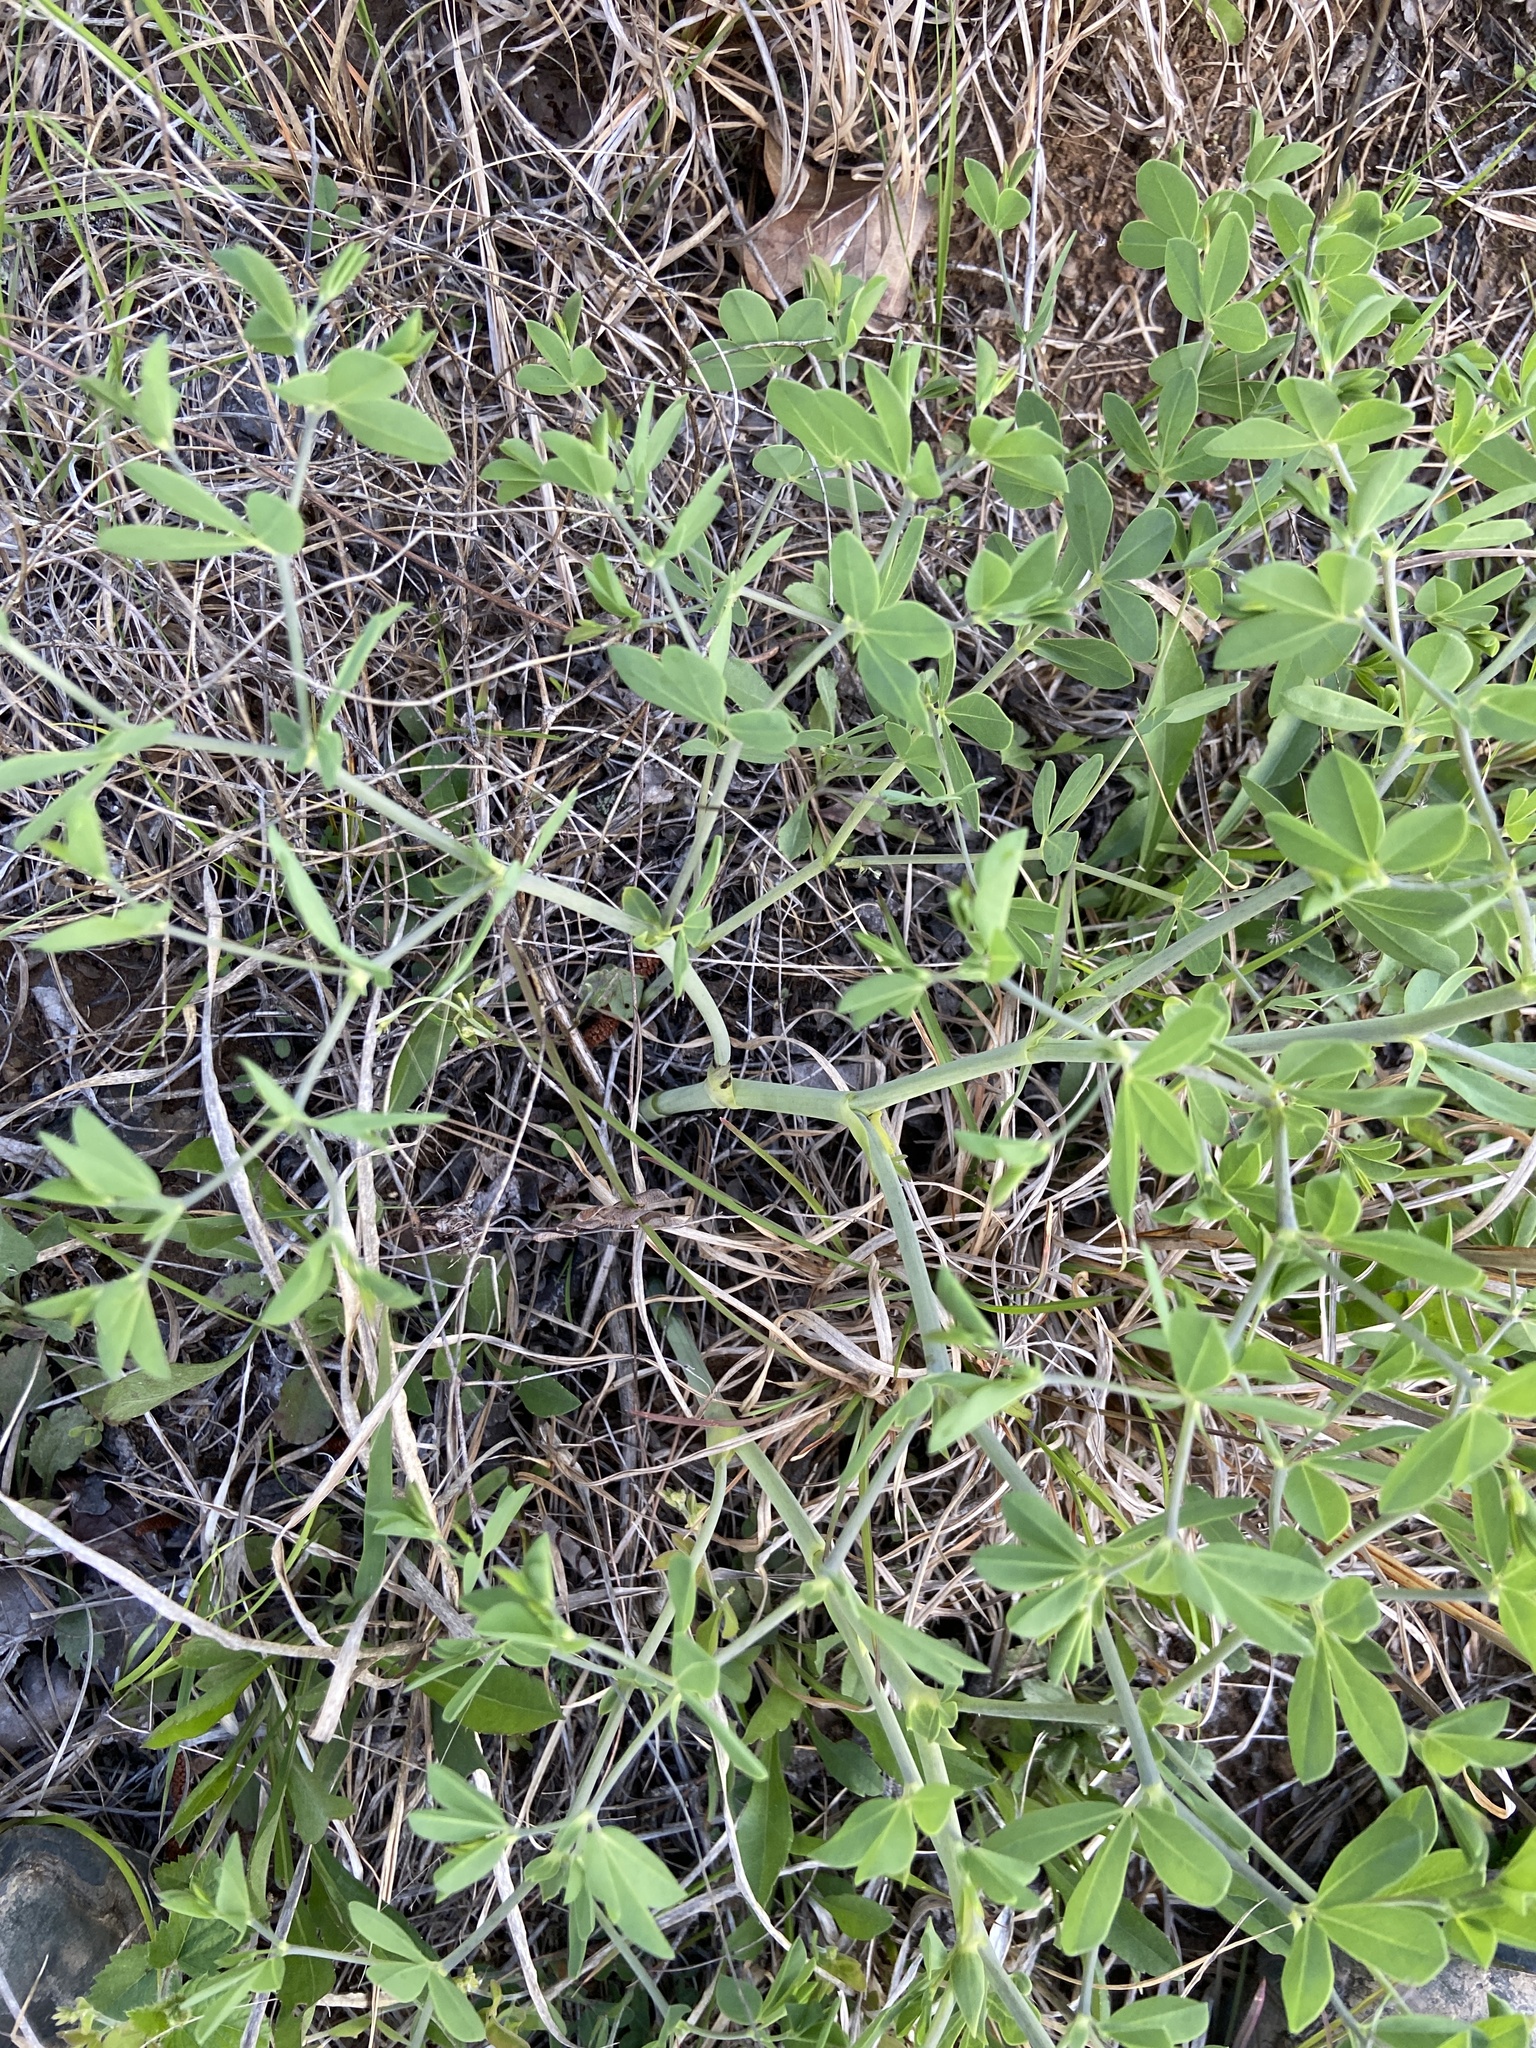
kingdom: Plantae
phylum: Tracheophyta
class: Magnoliopsida
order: Fabales
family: Fabaceae
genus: Baptisia
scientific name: Baptisia aberrans
